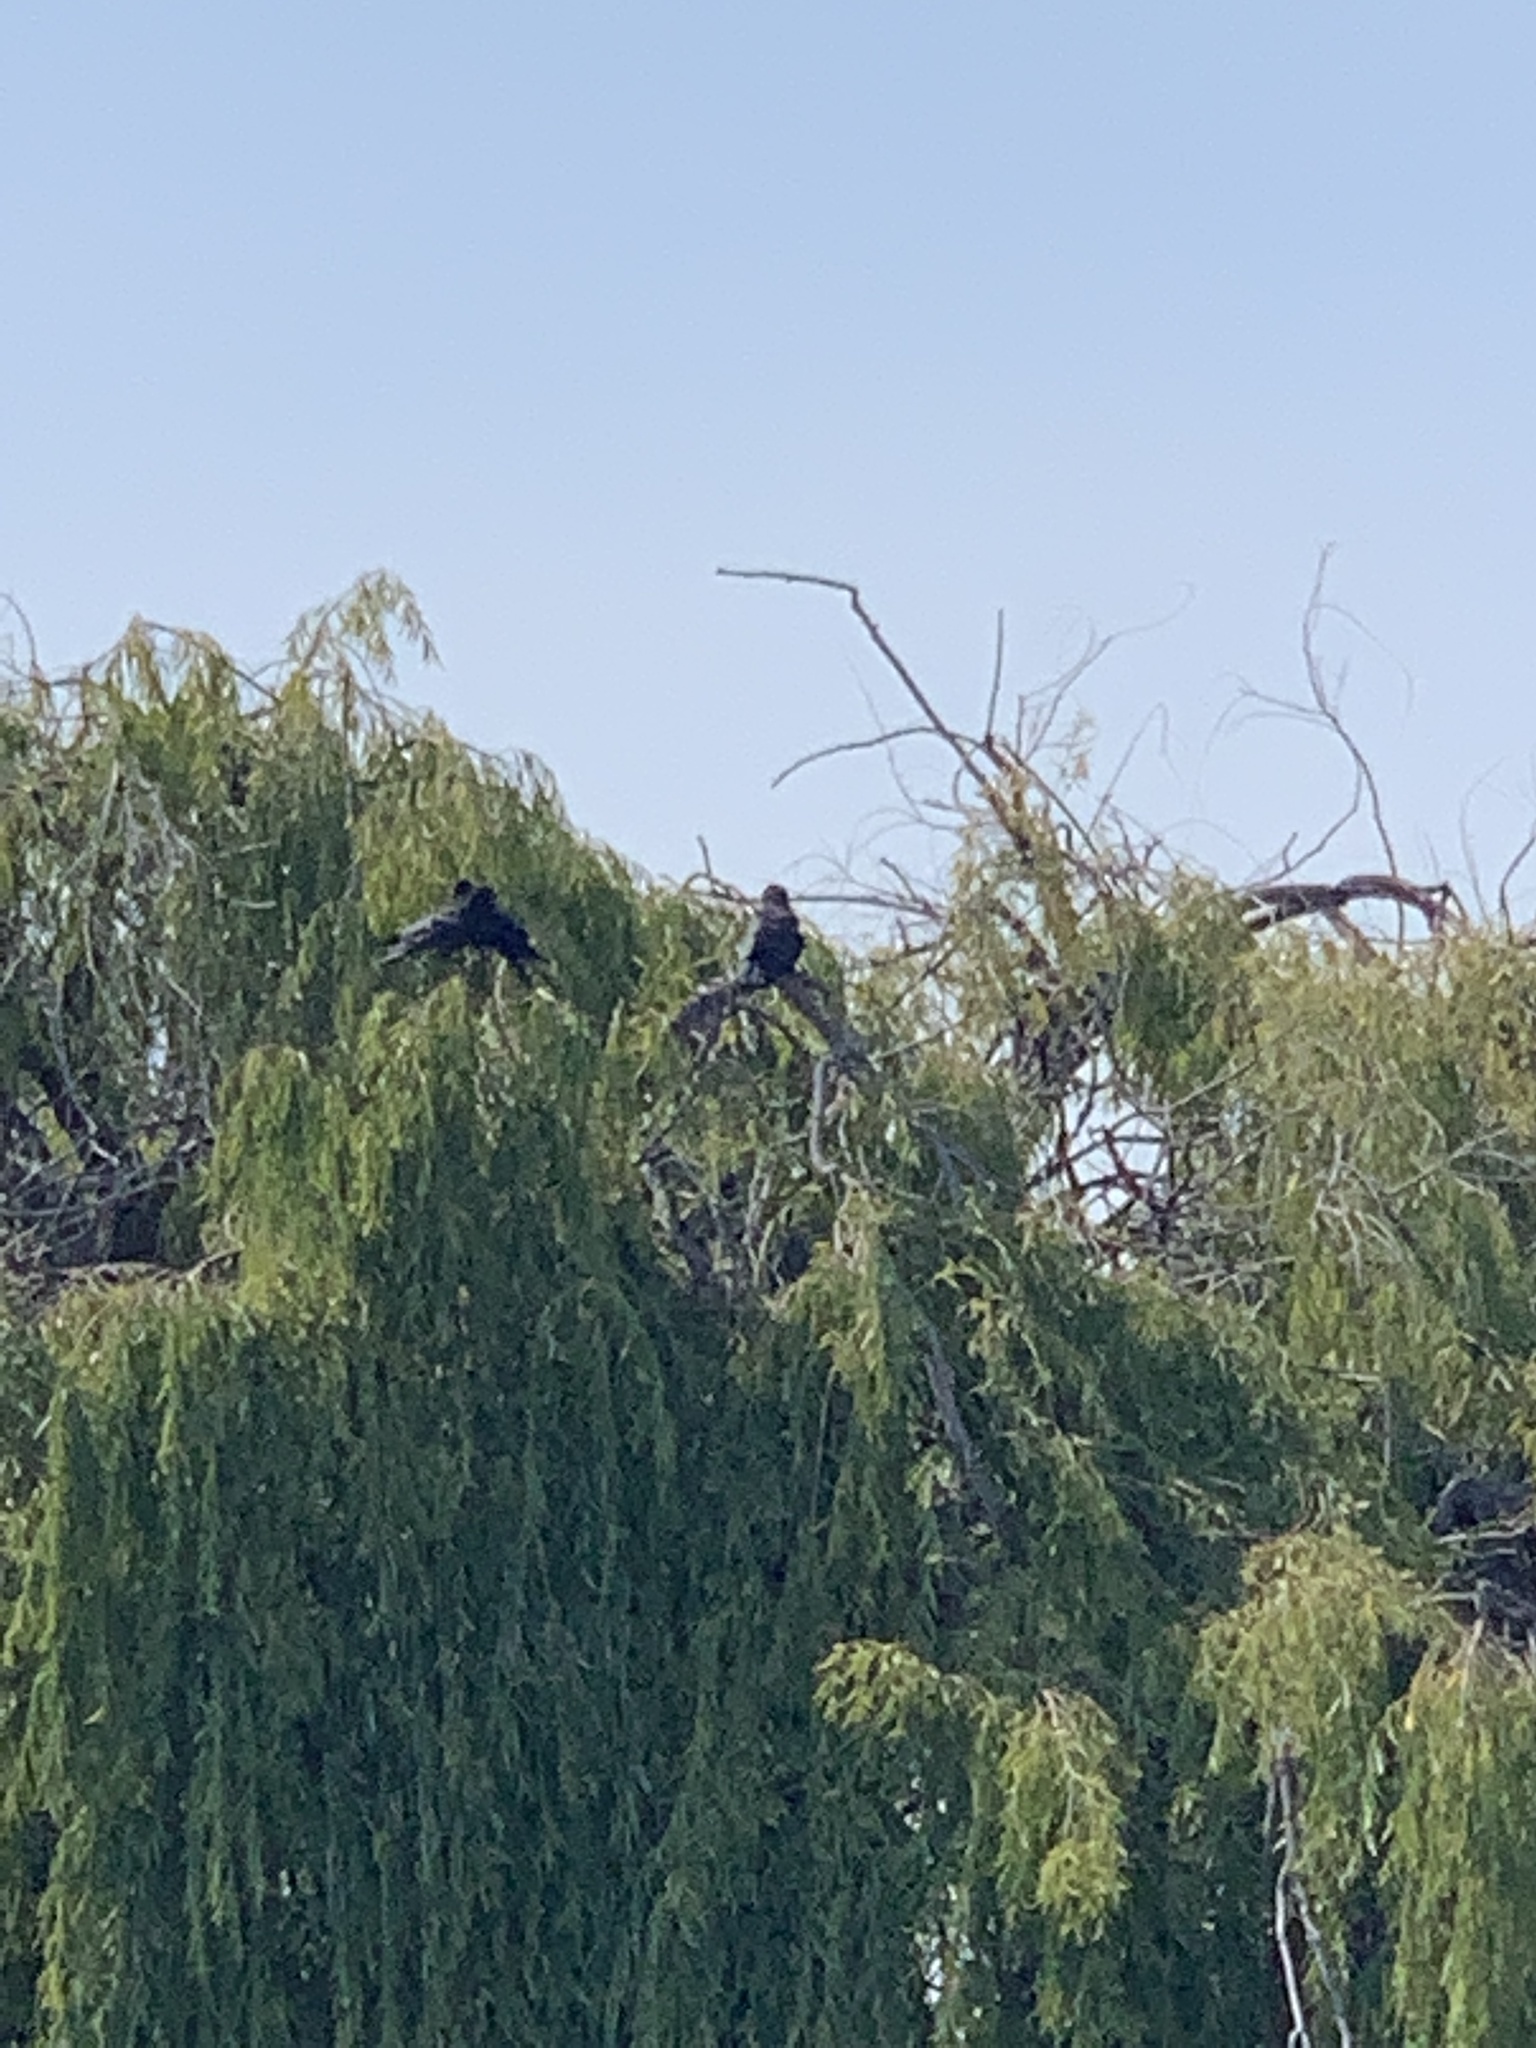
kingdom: Animalia
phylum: Chordata
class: Aves
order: Passeriformes
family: Corvidae
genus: Corvus
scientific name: Corvus brachyrhynchos
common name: American crow
